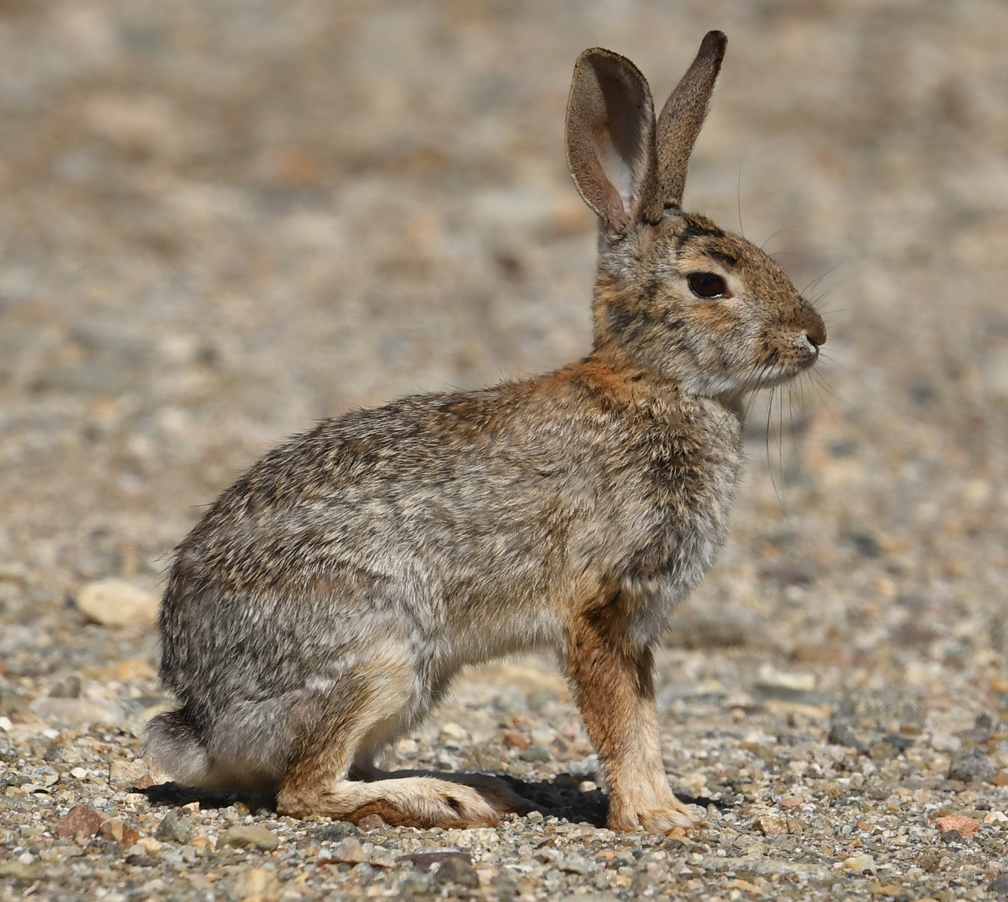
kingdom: Animalia
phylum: Chordata
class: Mammalia
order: Lagomorpha
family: Leporidae
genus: Sylvilagus
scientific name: Sylvilagus audubonii
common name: Desert cottontail
